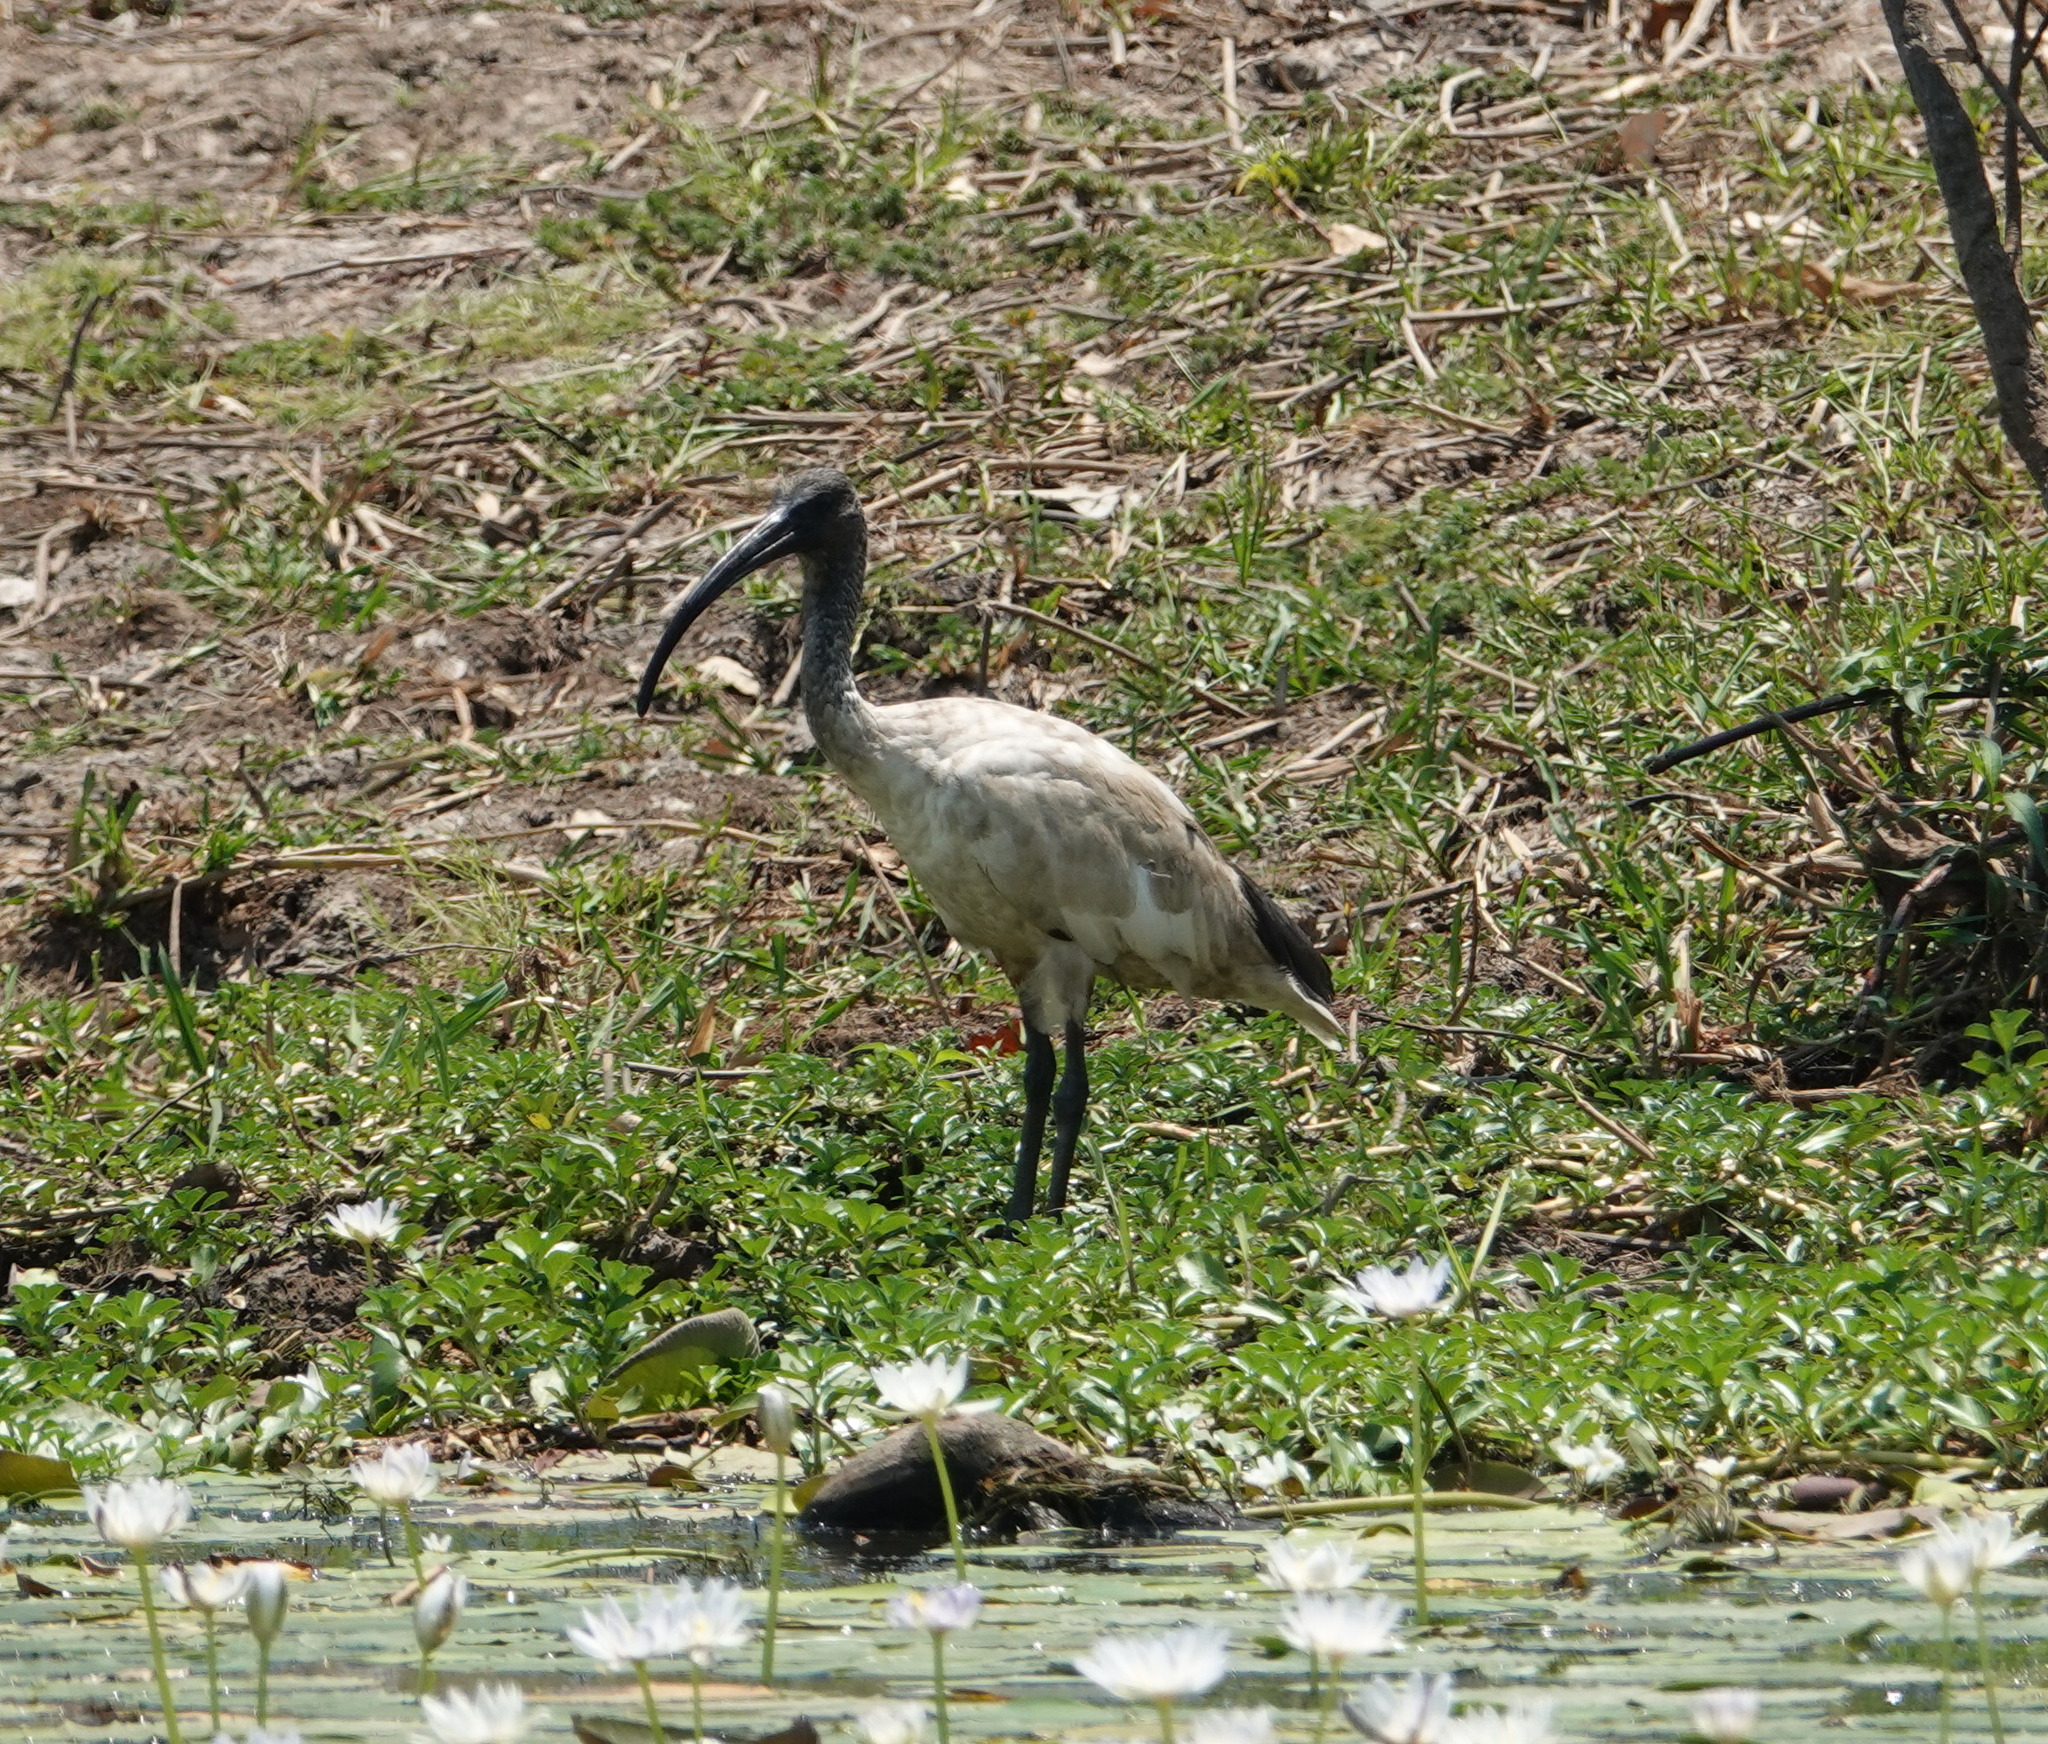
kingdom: Animalia
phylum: Chordata
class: Aves
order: Pelecaniformes
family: Threskiornithidae
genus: Threskiornis
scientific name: Threskiornis molucca
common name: Australian white ibis
